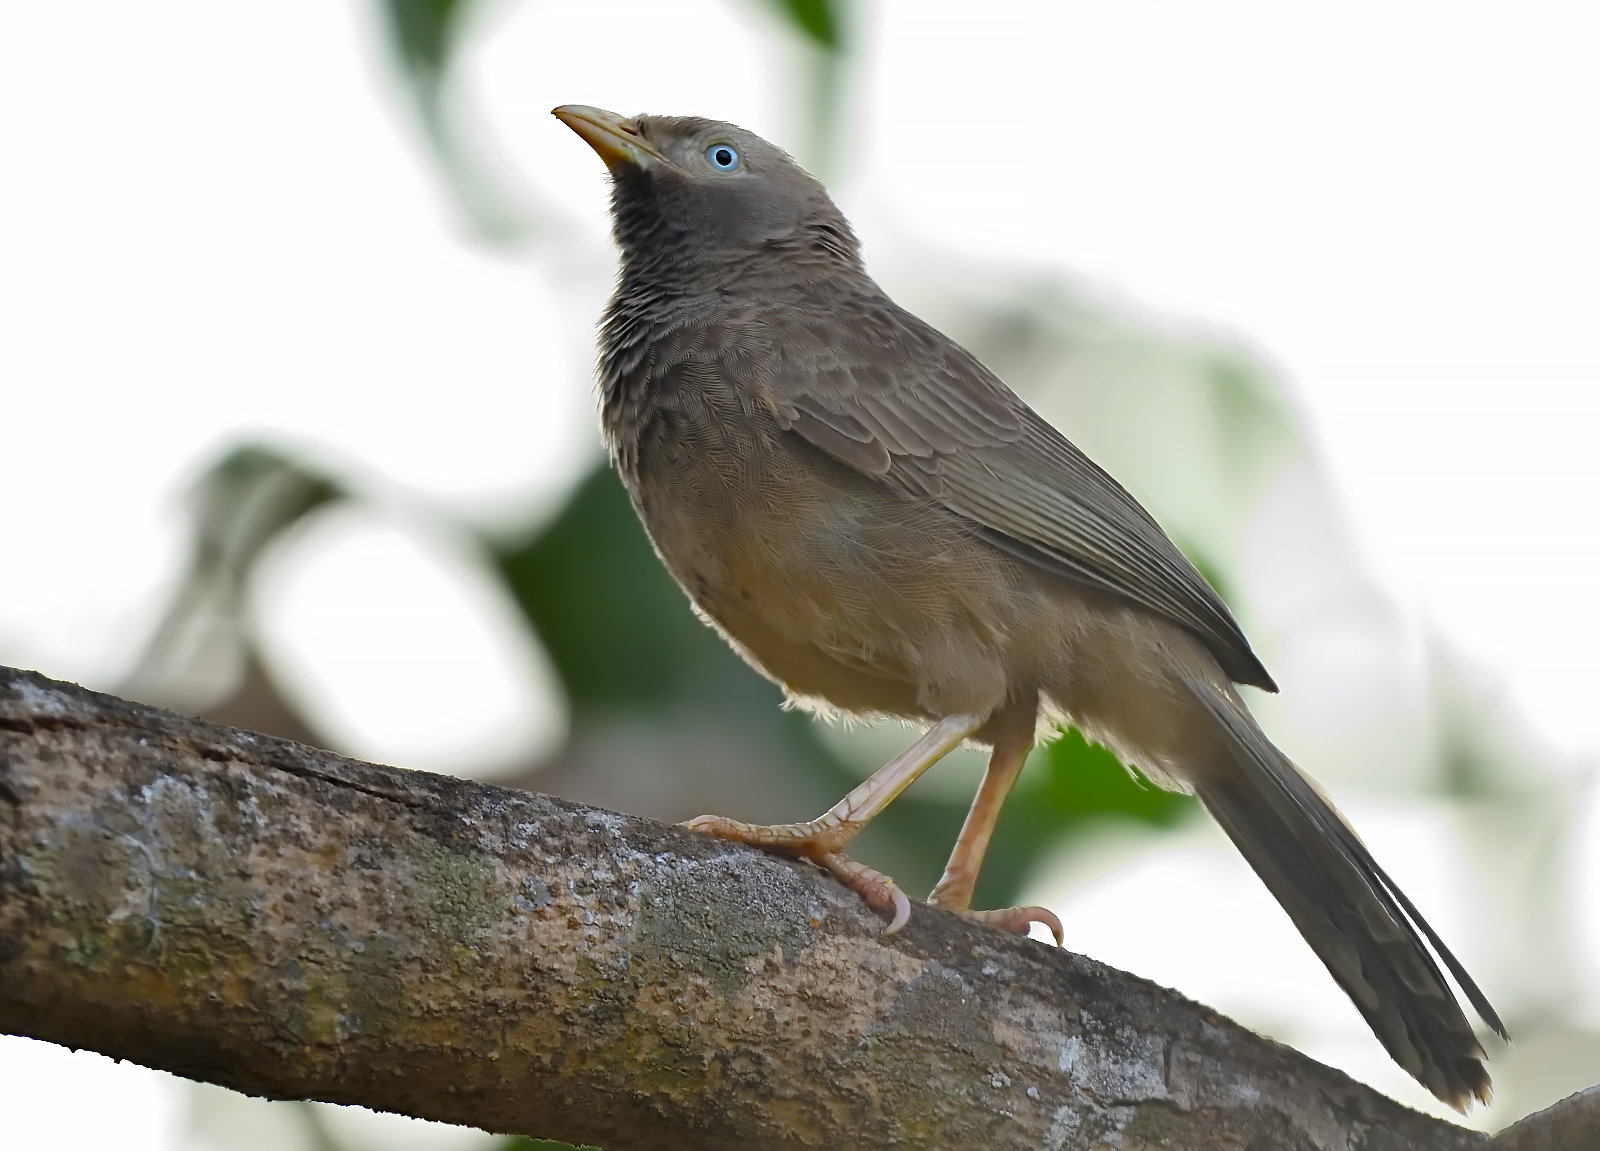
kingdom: Animalia
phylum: Chordata
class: Aves
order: Passeriformes
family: Leiothrichidae
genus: Turdoides
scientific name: Turdoides affinis
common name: Yellow-billed babbler
